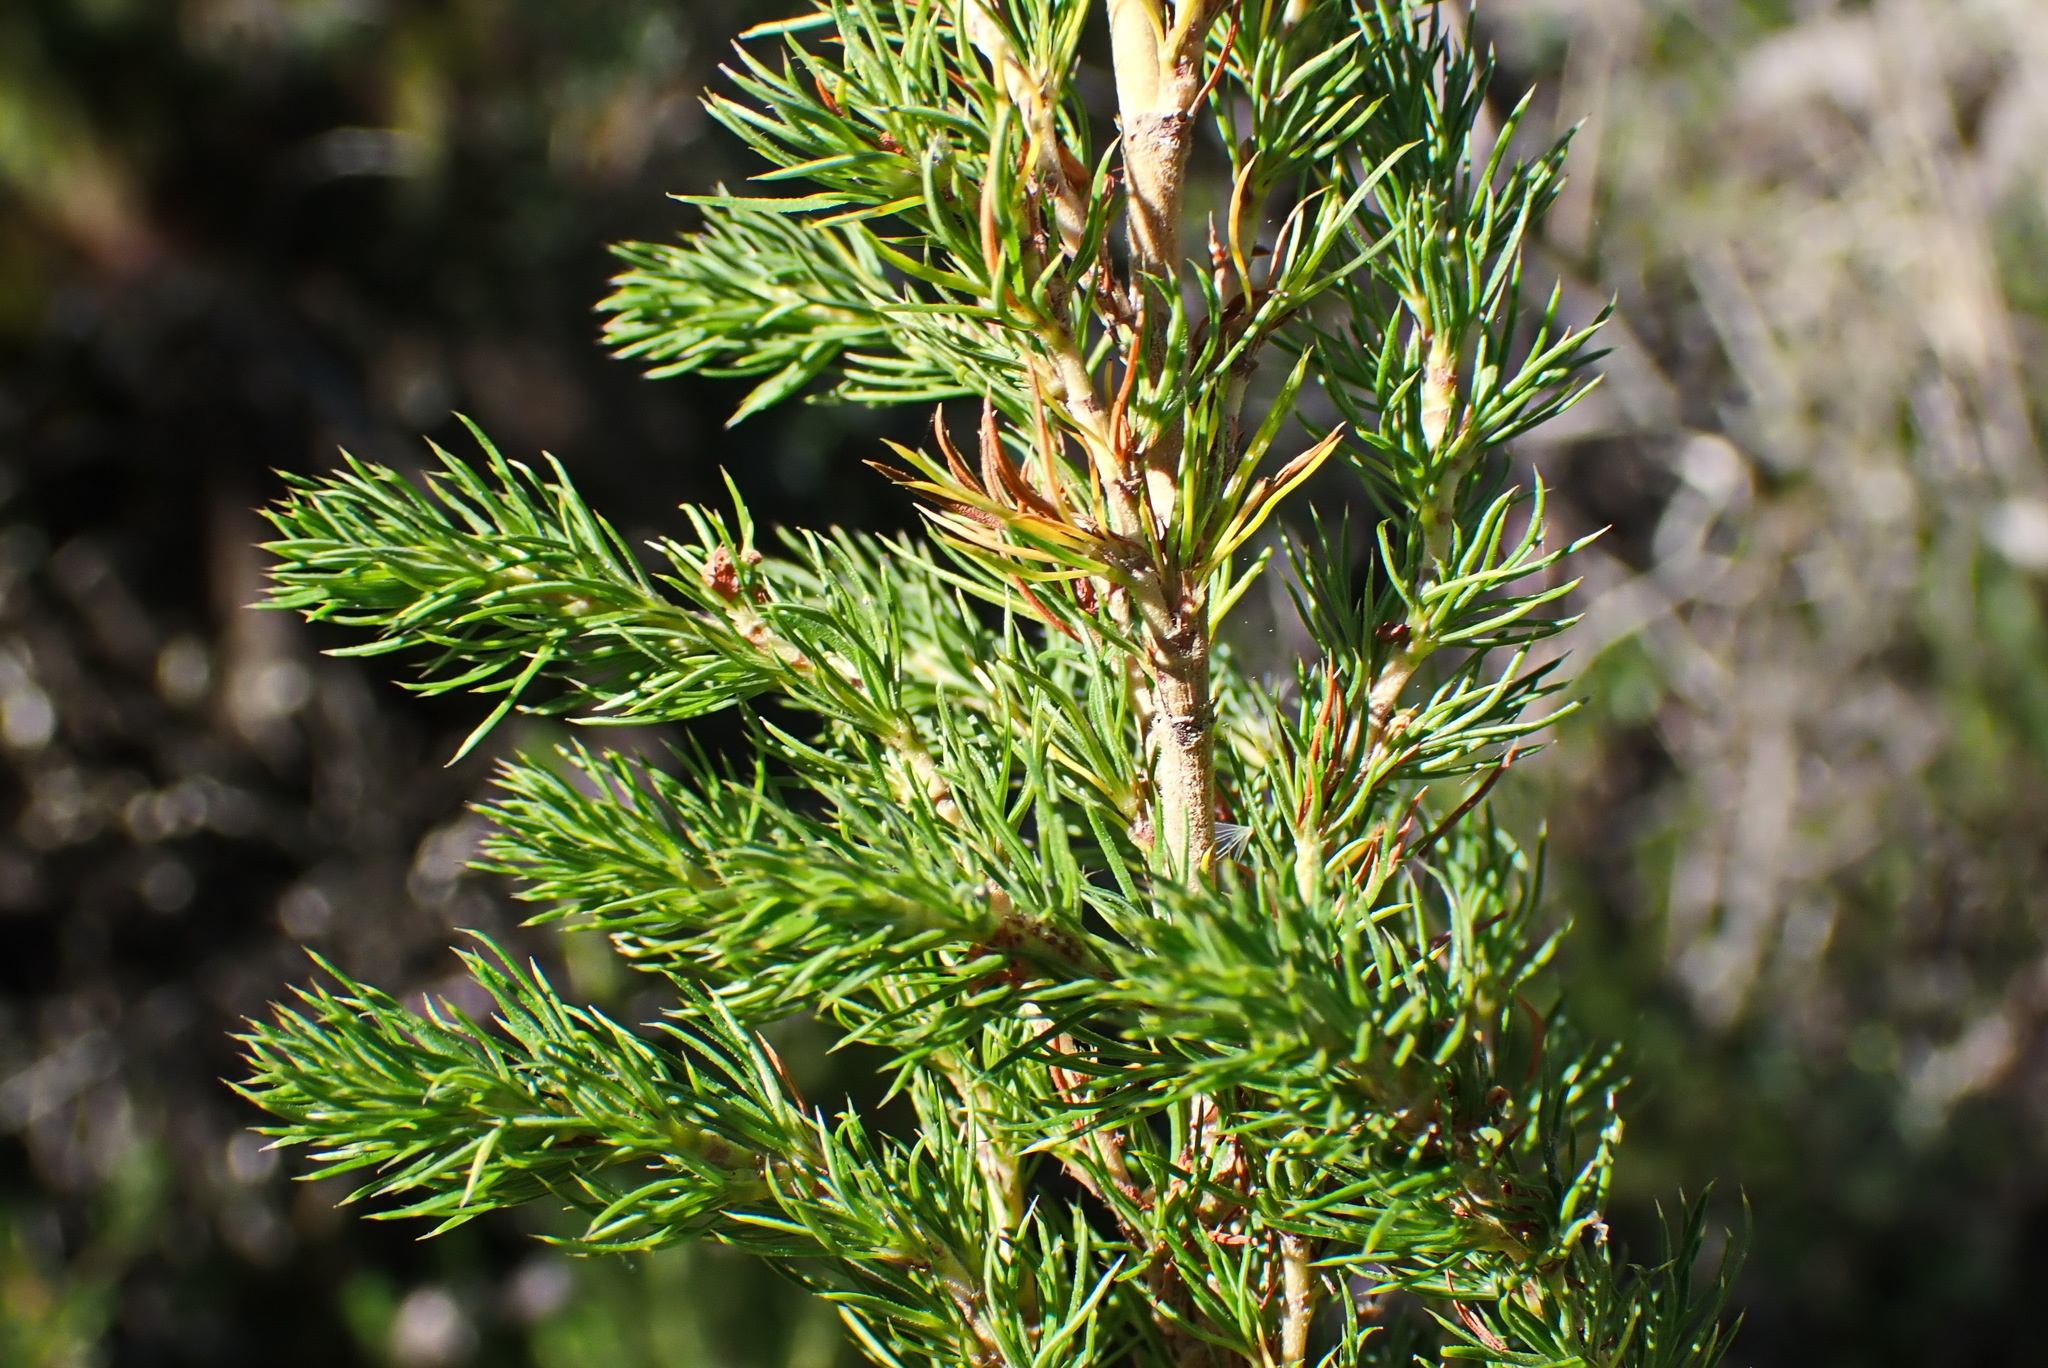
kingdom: Plantae
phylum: Tracheophyta
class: Magnoliopsida
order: Rosales
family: Rosaceae
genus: Cliffortia
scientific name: Cliffortia paucistaminea
